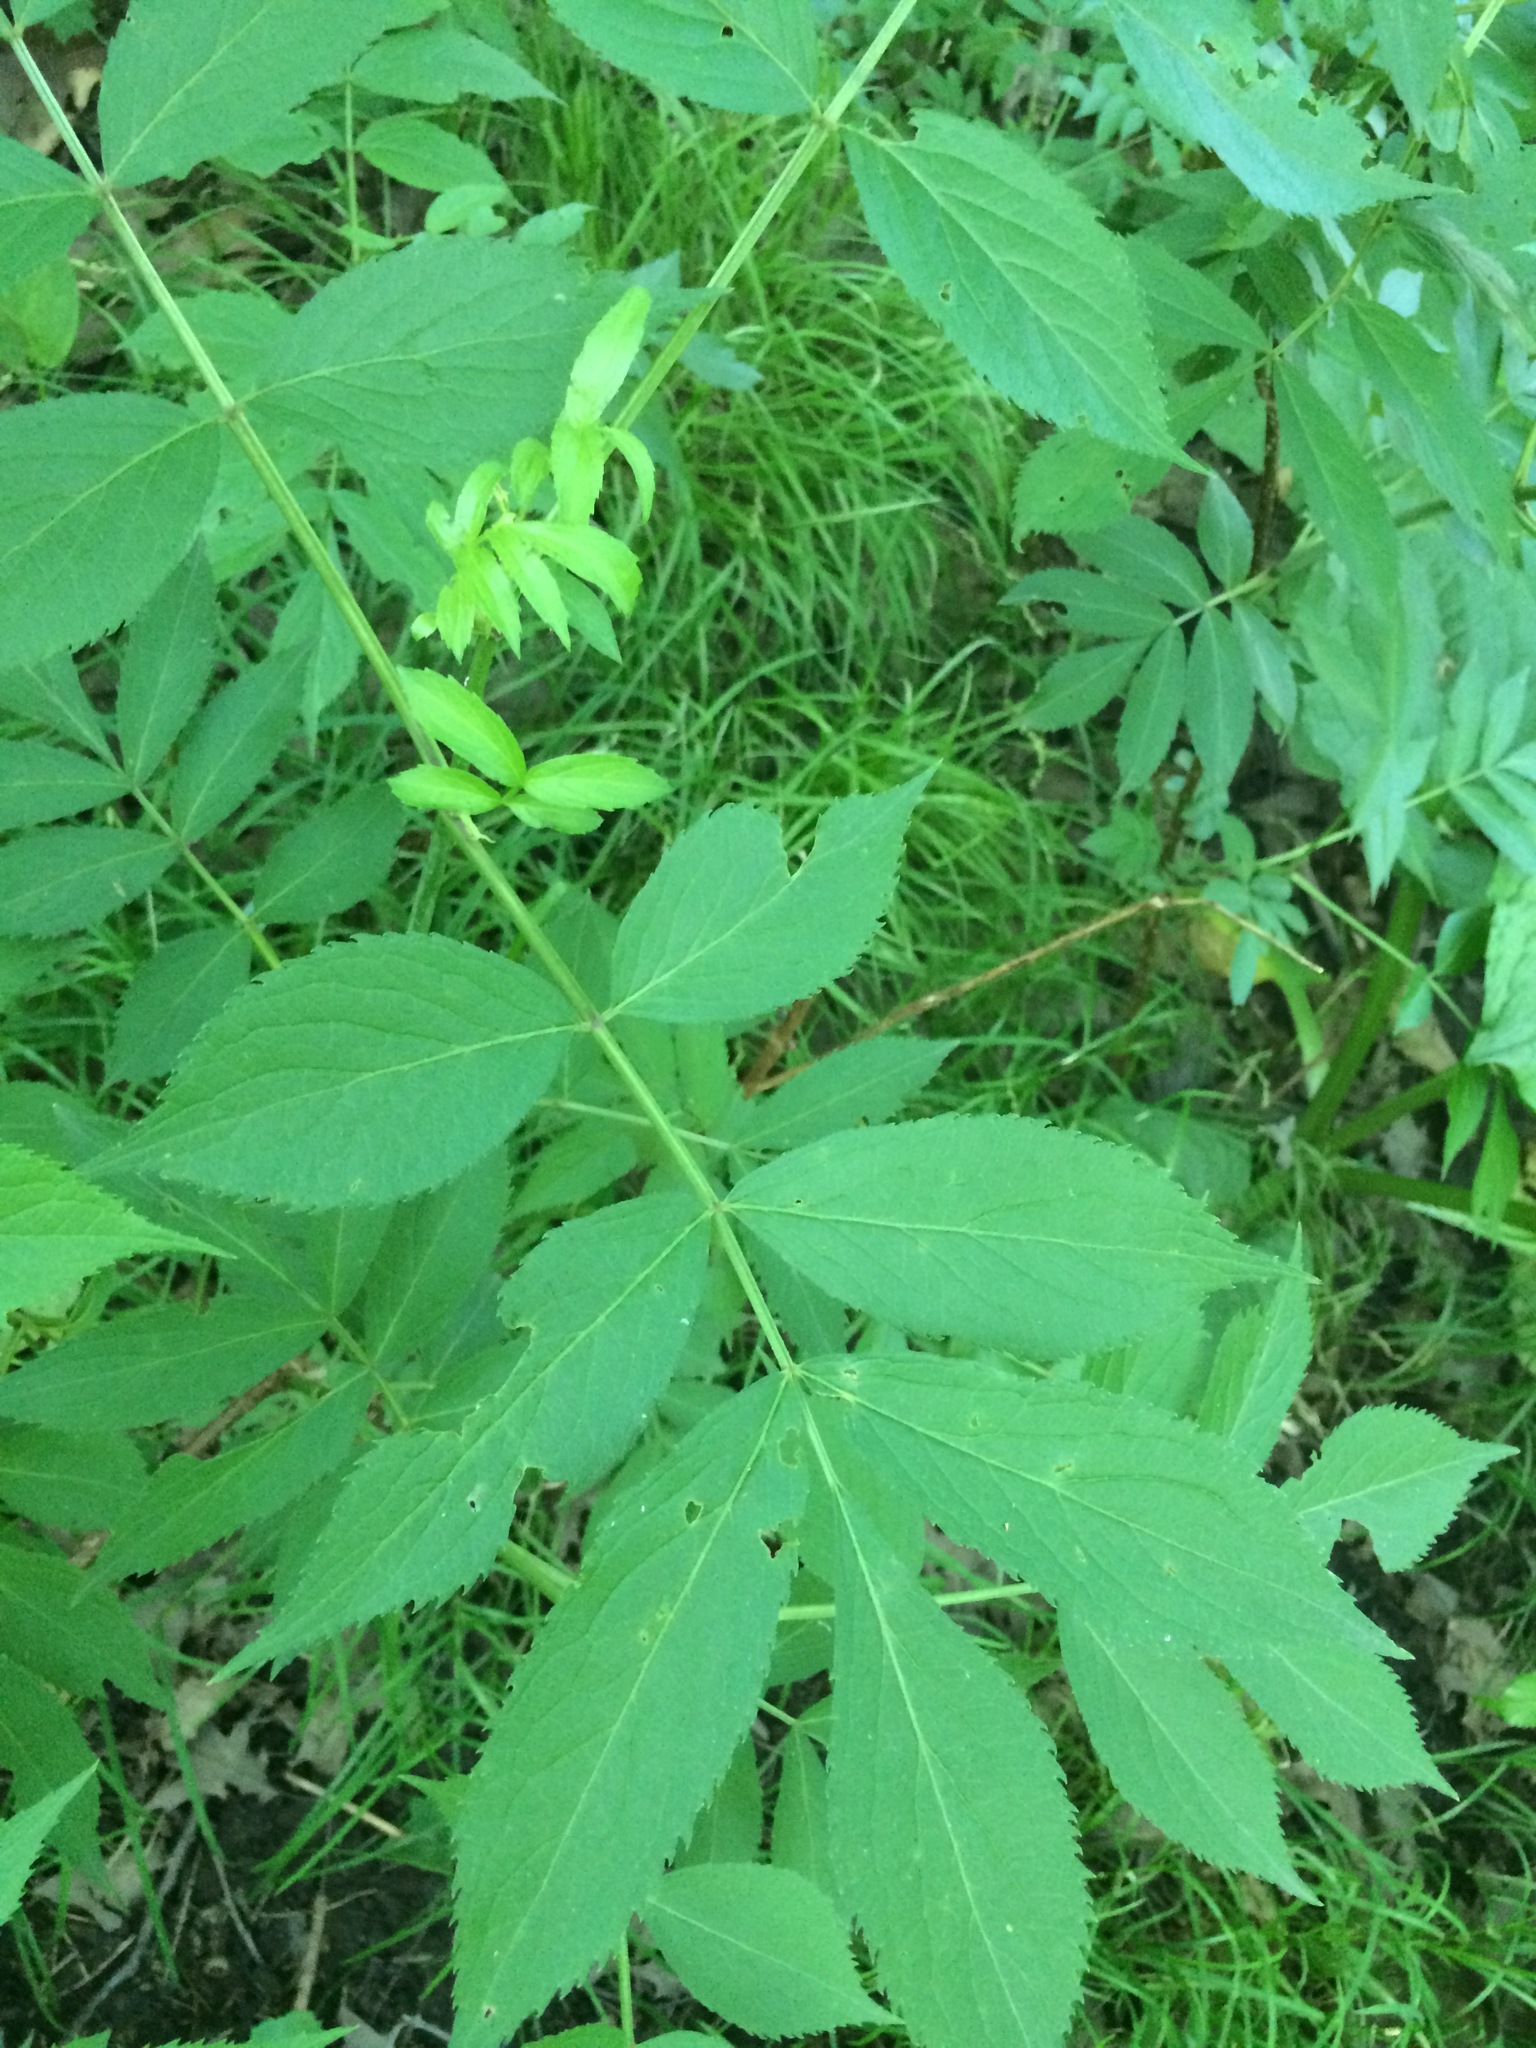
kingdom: Plantae
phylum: Tracheophyta
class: Magnoliopsida
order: Dipsacales
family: Viburnaceae
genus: Sambucus
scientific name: Sambucus canadensis
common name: American elder
